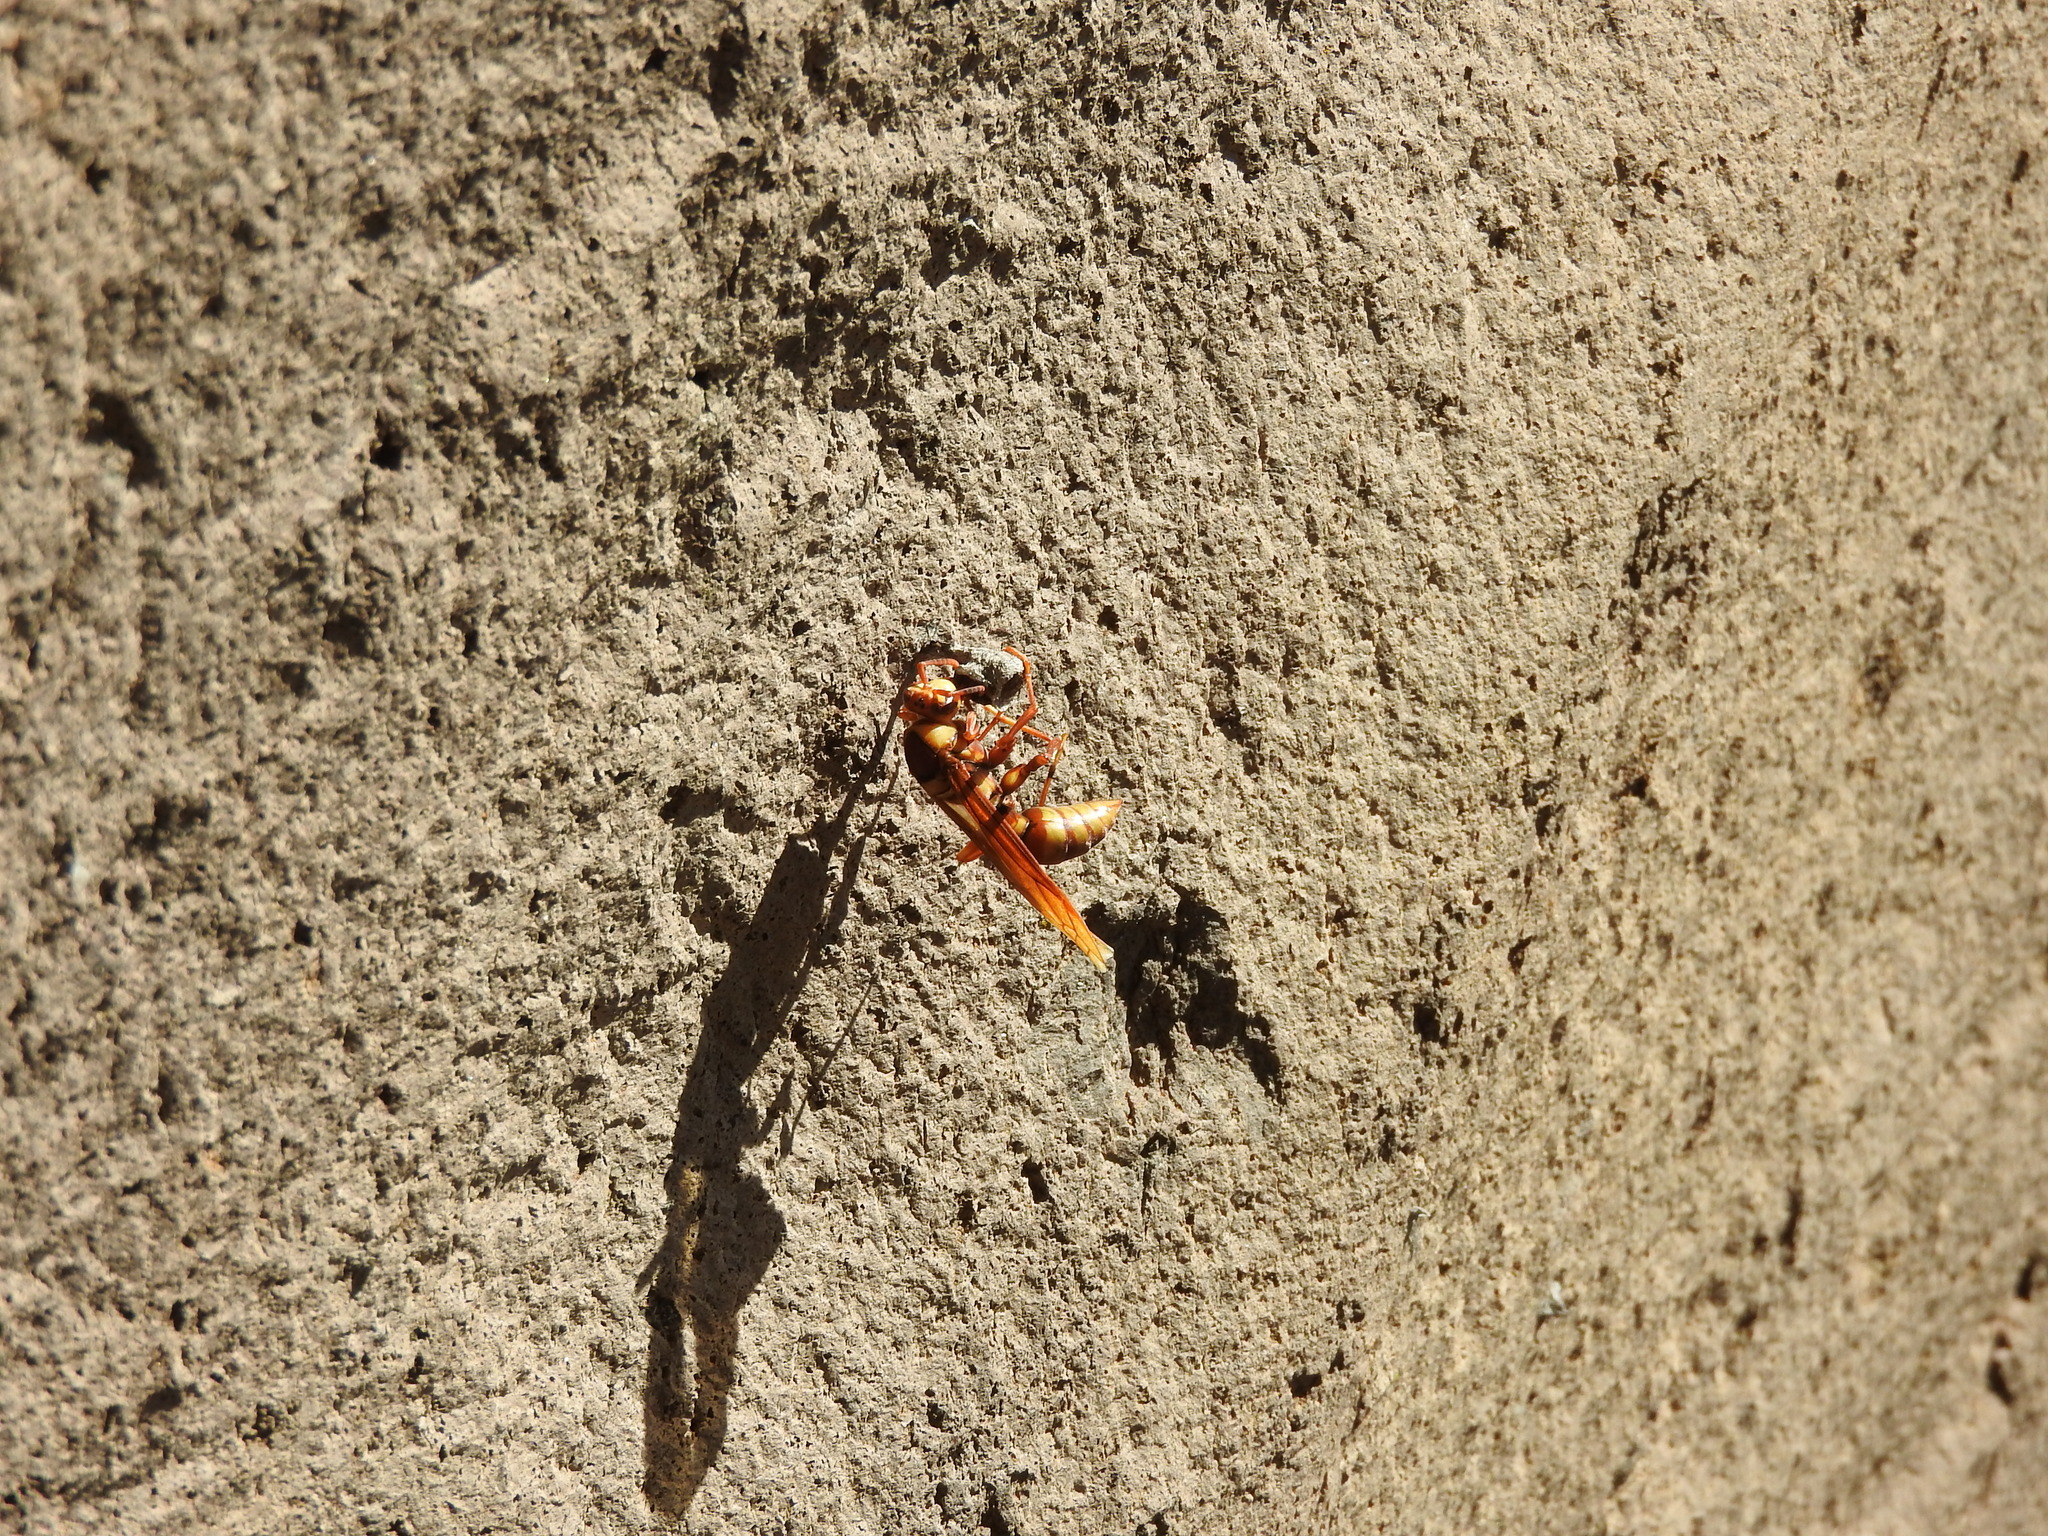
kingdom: Animalia
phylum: Arthropoda
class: Insecta
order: Hymenoptera
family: Eumenidae
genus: Polistes
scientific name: Polistes major
